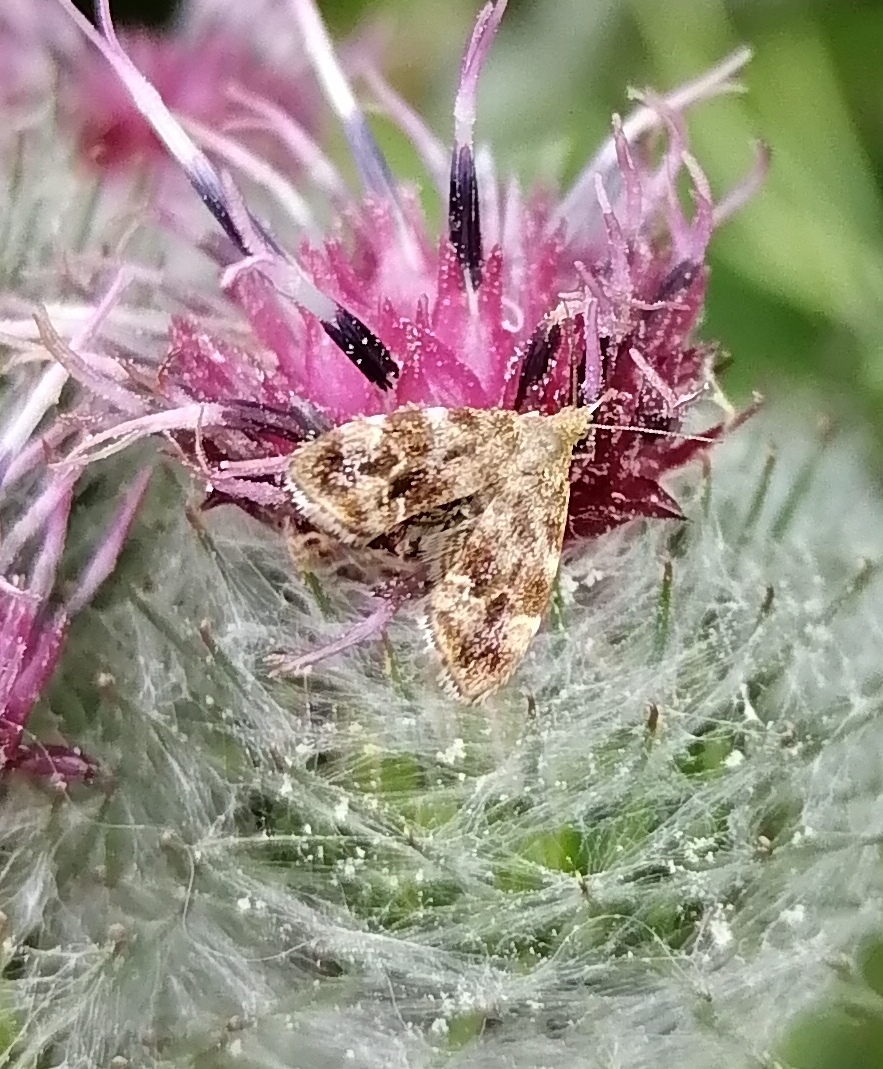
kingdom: Animalia
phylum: Arthropoda
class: Insecta
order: Lepidoptera
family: Choreutidae
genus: Anthophila
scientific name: Anthophila fabriciana
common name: Nettle-tap
